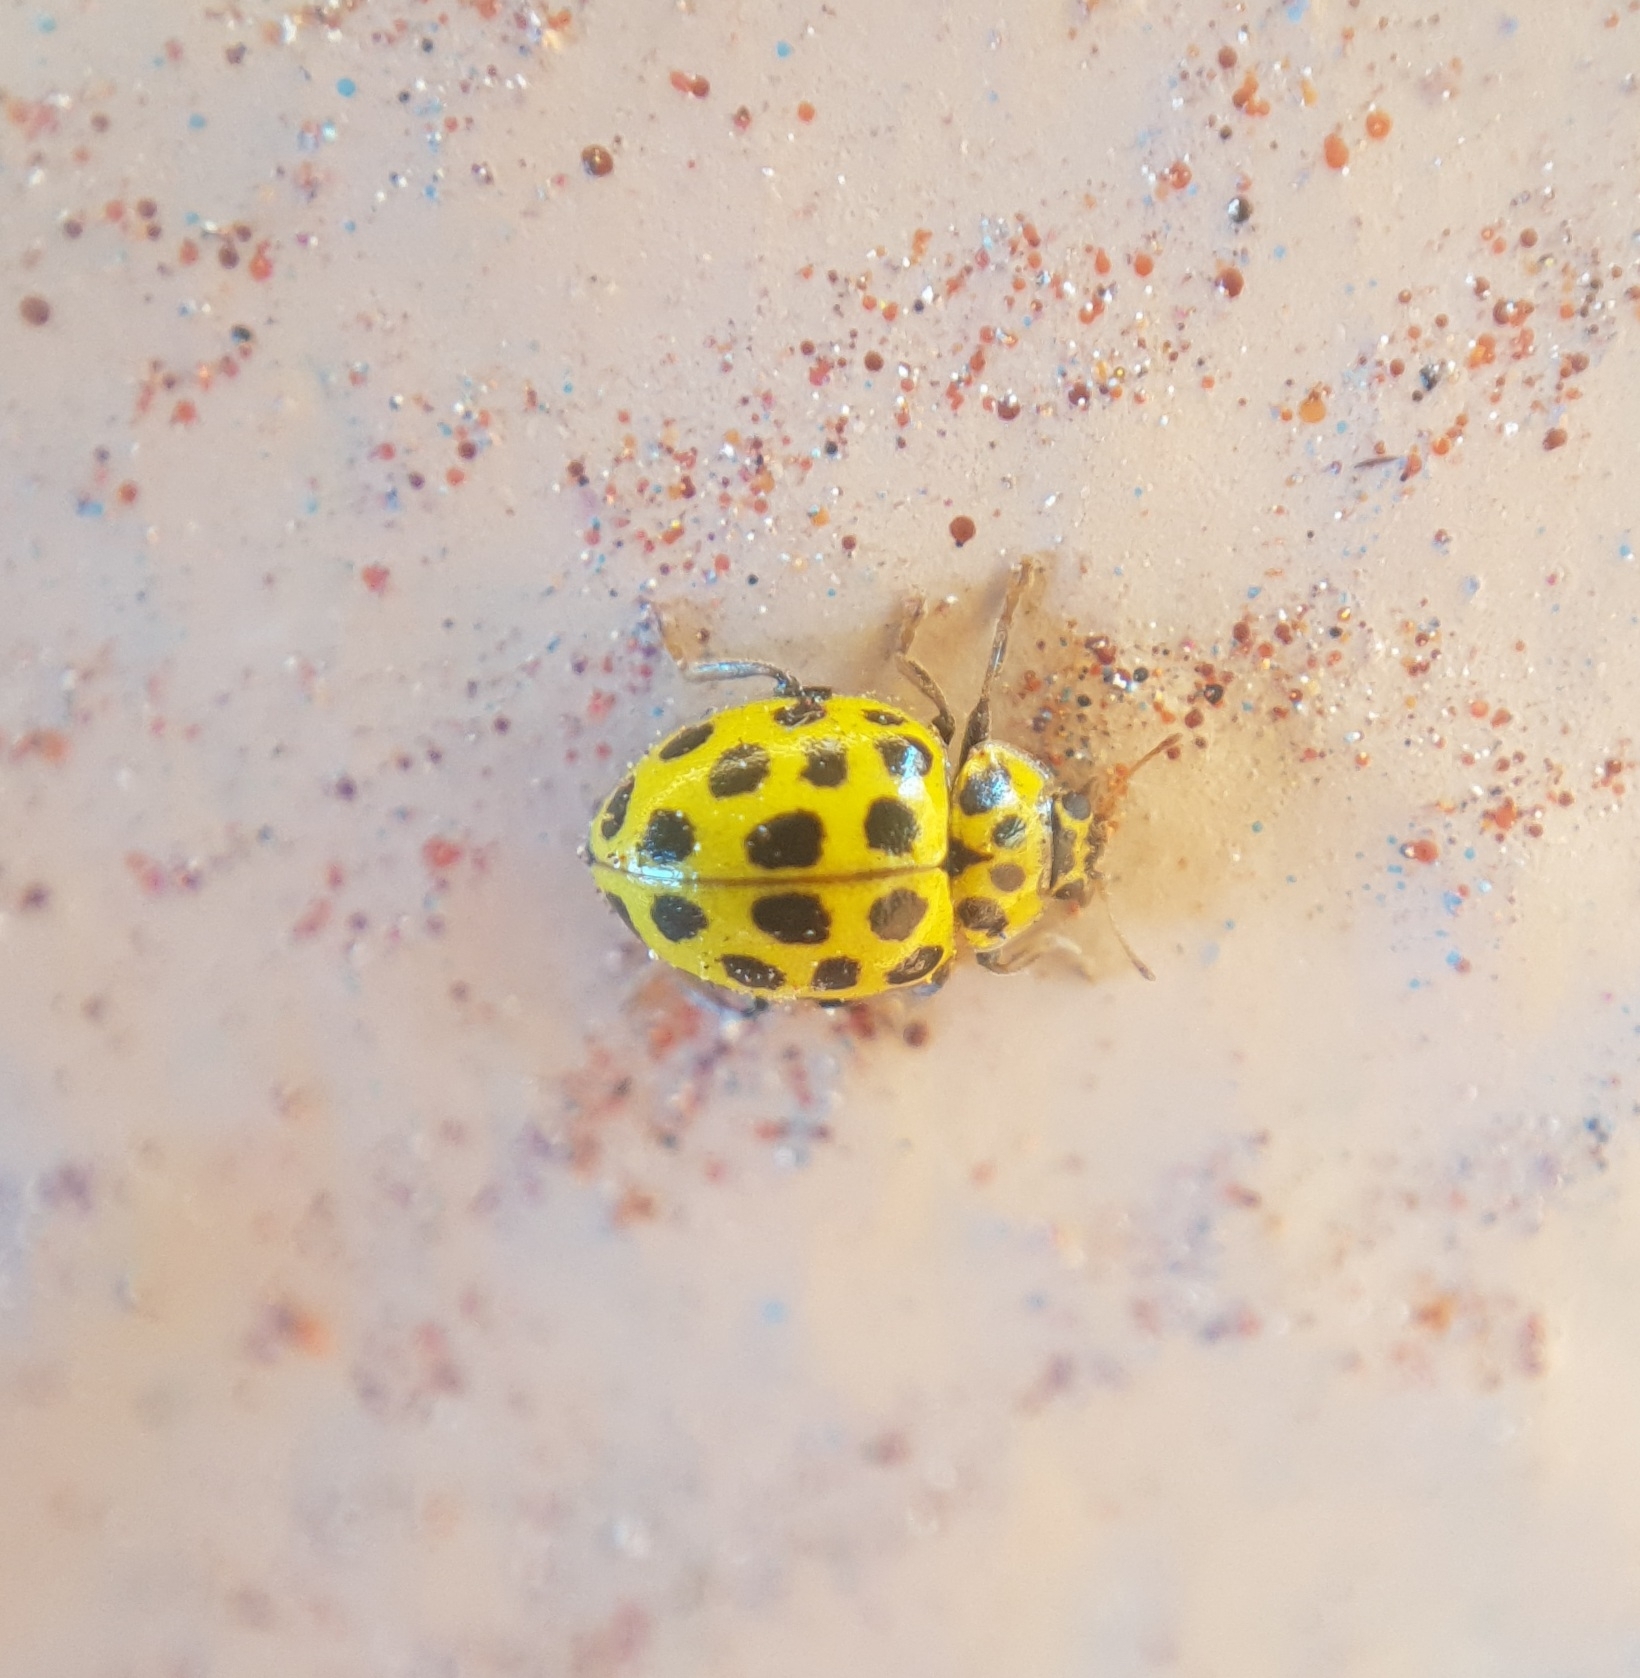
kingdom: Animalia
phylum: Arthropoda
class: Insecta
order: Coleoptera
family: Coccinellidae
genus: Psyllobora
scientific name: Psyllobora vigintiduopunctata
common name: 22-spot ladybird
